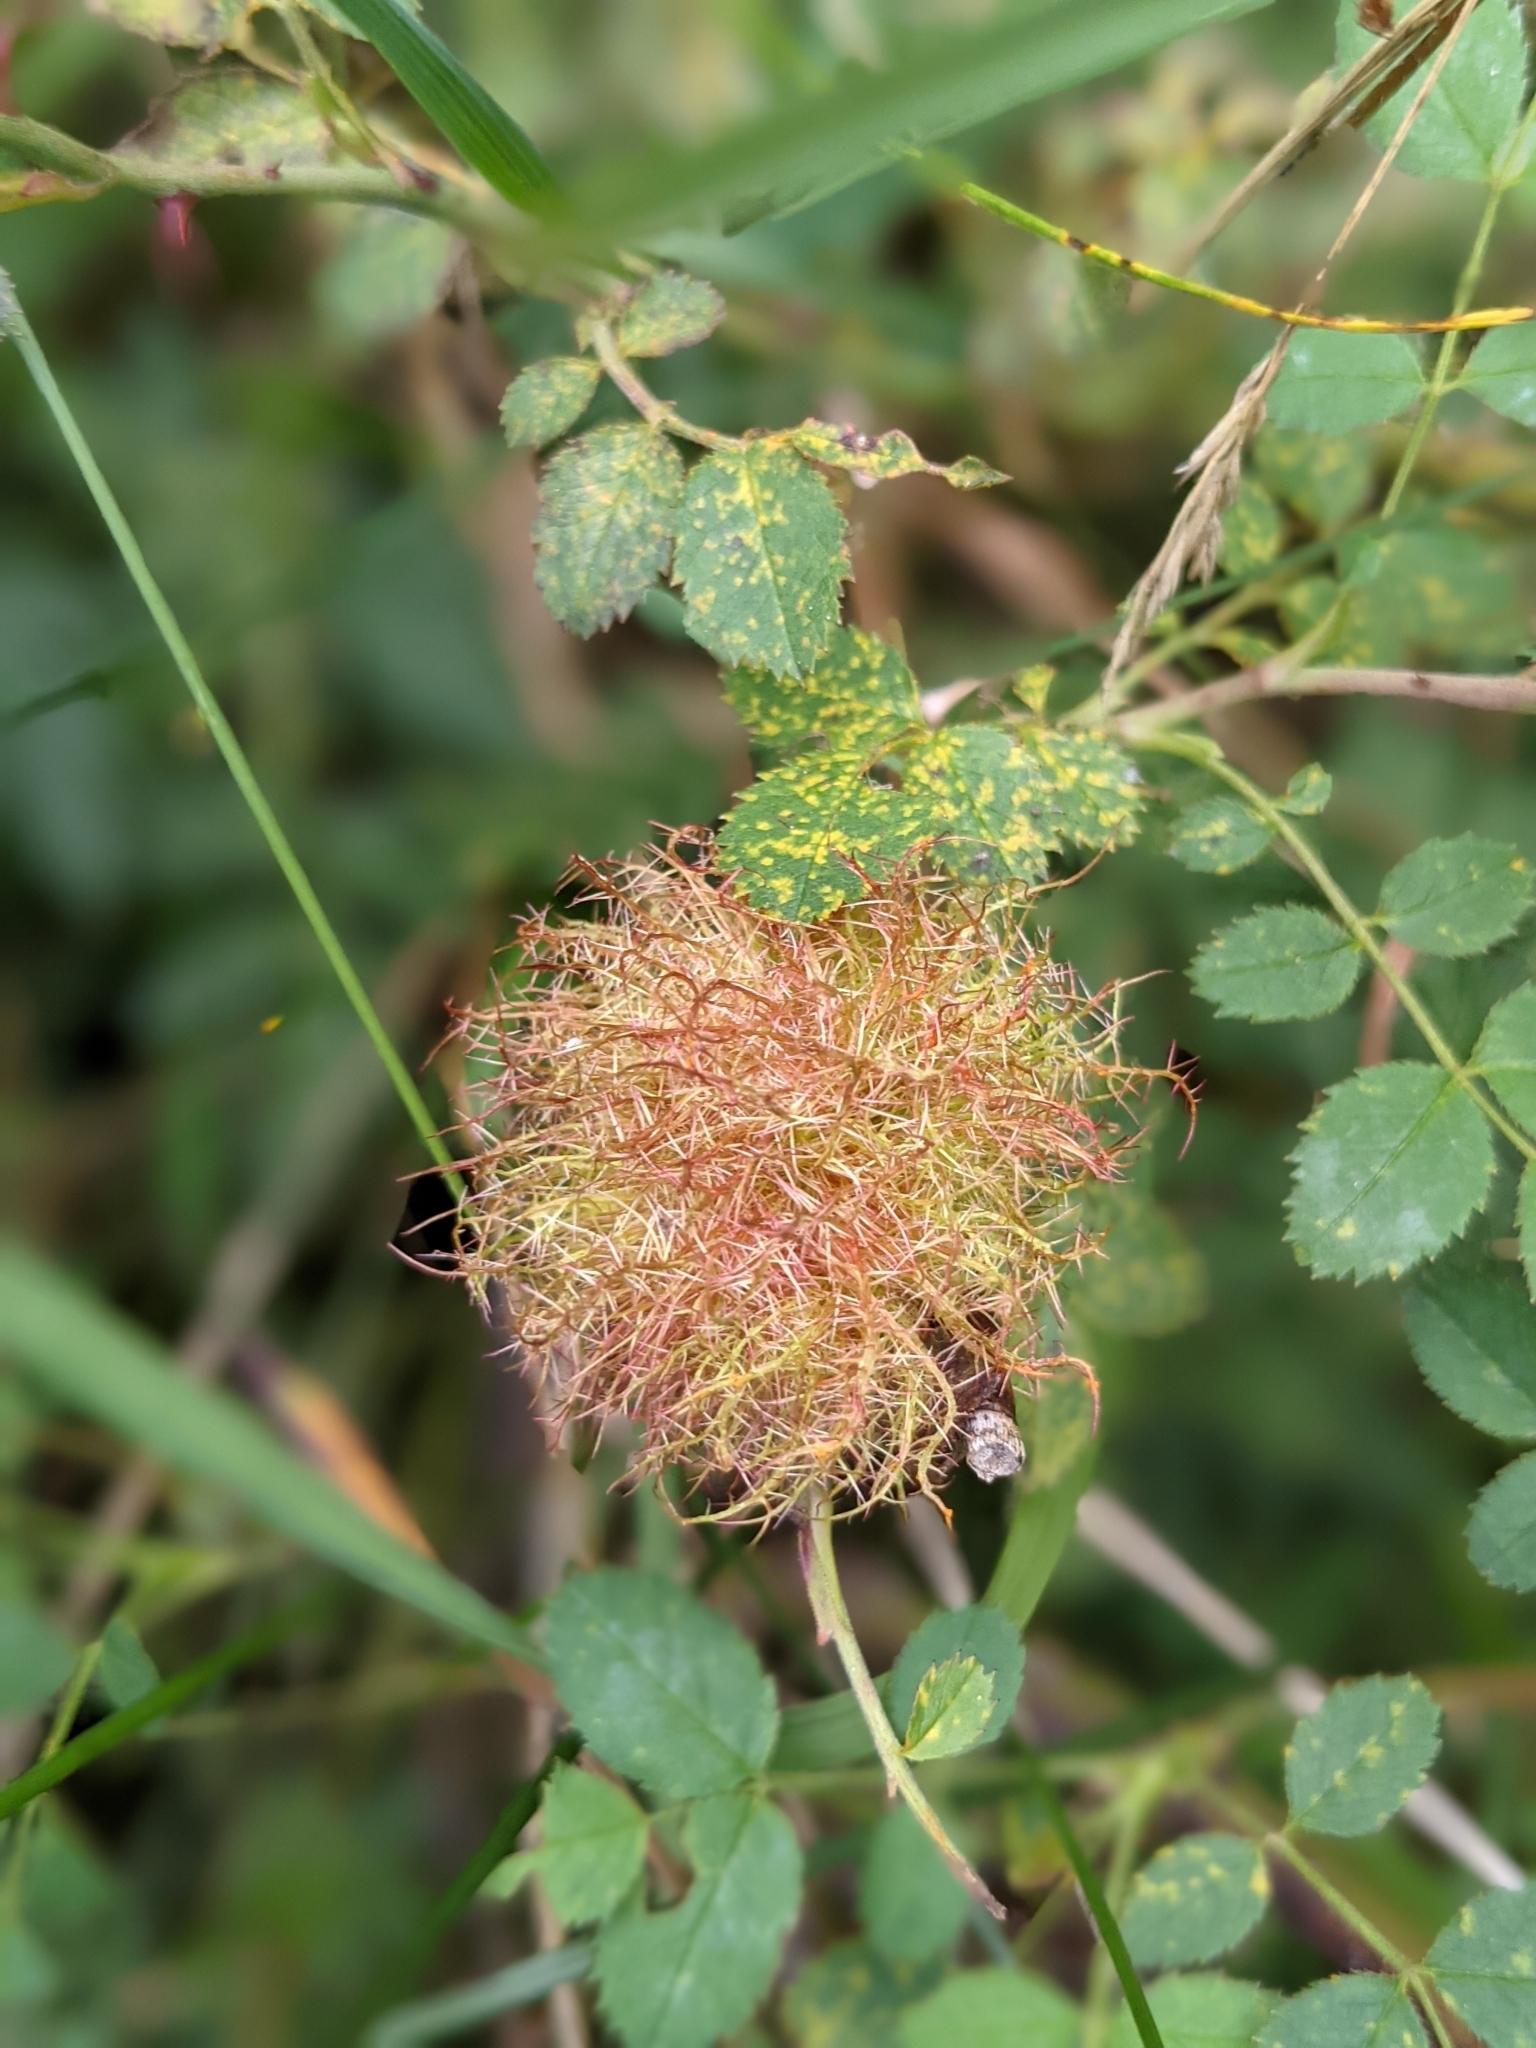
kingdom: Animalia
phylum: Arthropoda
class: Insecta
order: Hymenoptera
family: Cynipidae
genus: Diplolepis
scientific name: Diplolepis rosae
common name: Bedeguar gall
